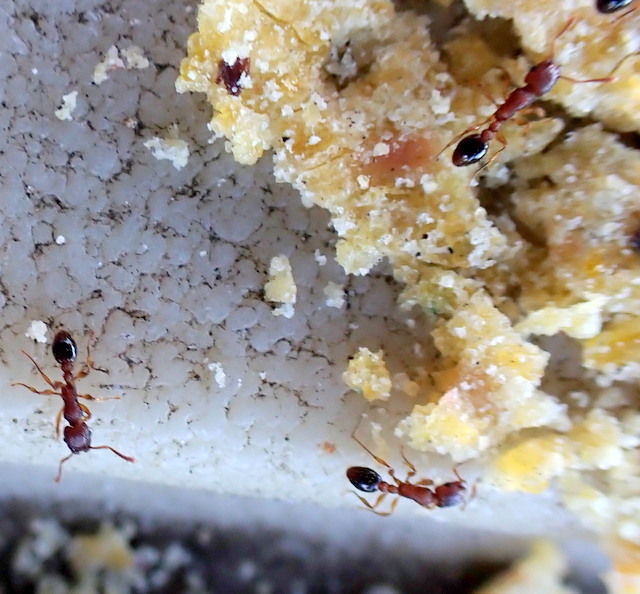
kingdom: Animalia
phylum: Arthropoda
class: Insecta
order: Hymenoptera
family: Formicidae
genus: Tetramorium
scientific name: Tetramorium bicarinatum
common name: Guinea ant
